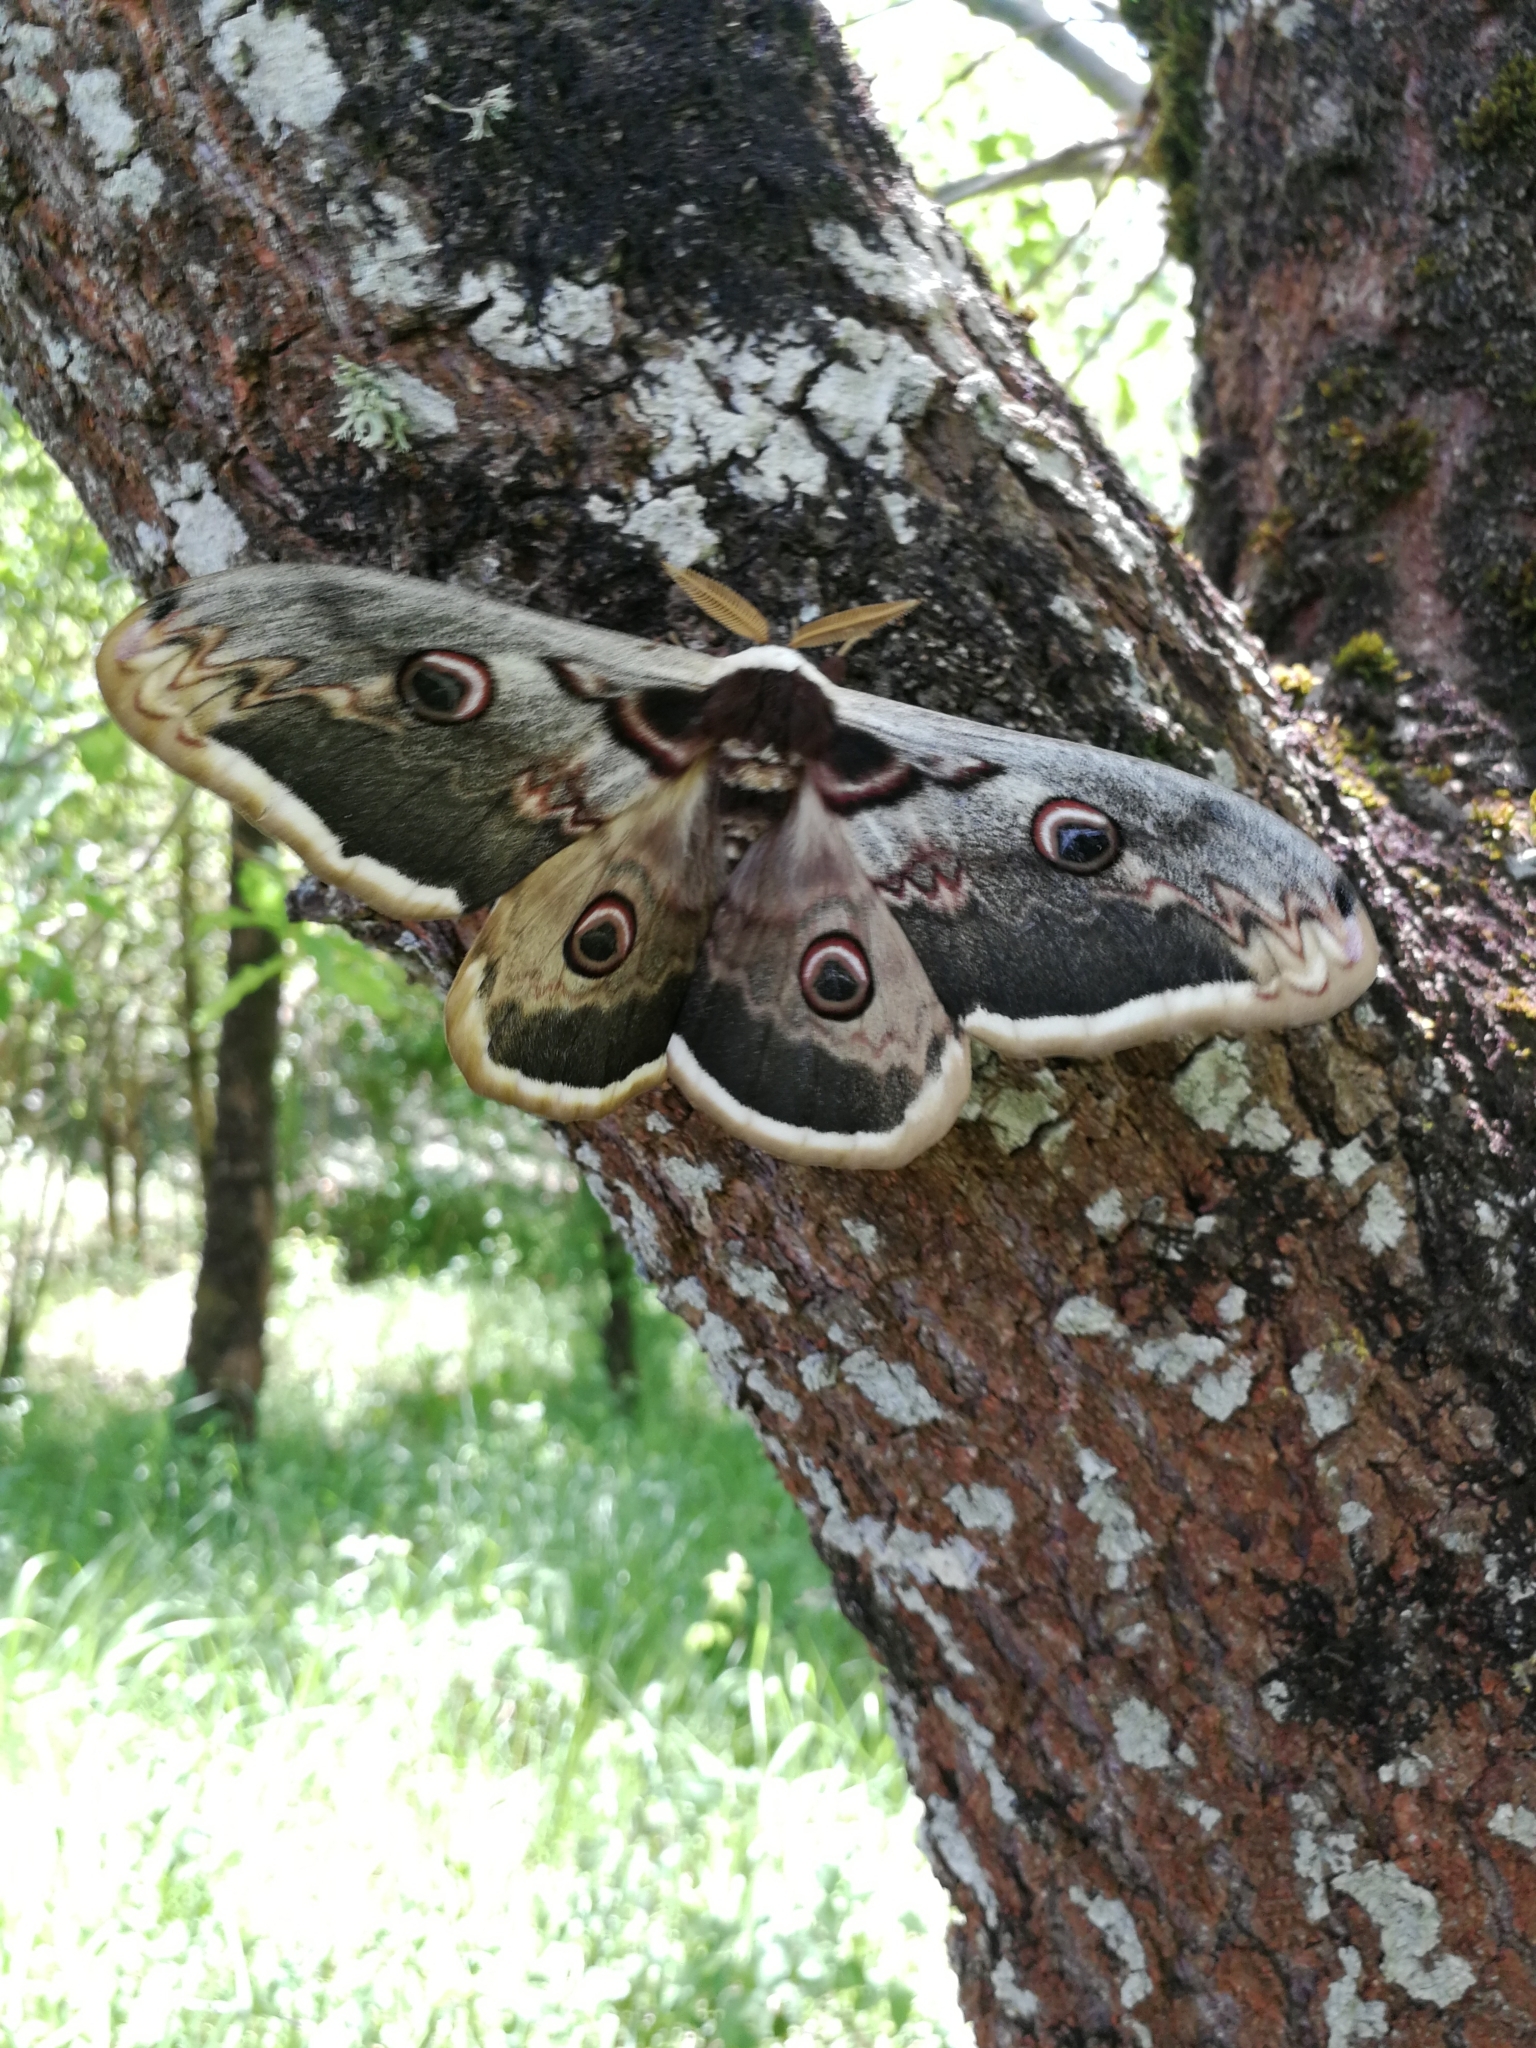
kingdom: Animalia
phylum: Arthropoda
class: Insecta
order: Lepidoptera
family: Saturniidae
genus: Saturnia
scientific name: Saturnia pyri
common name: Great peacock moth
